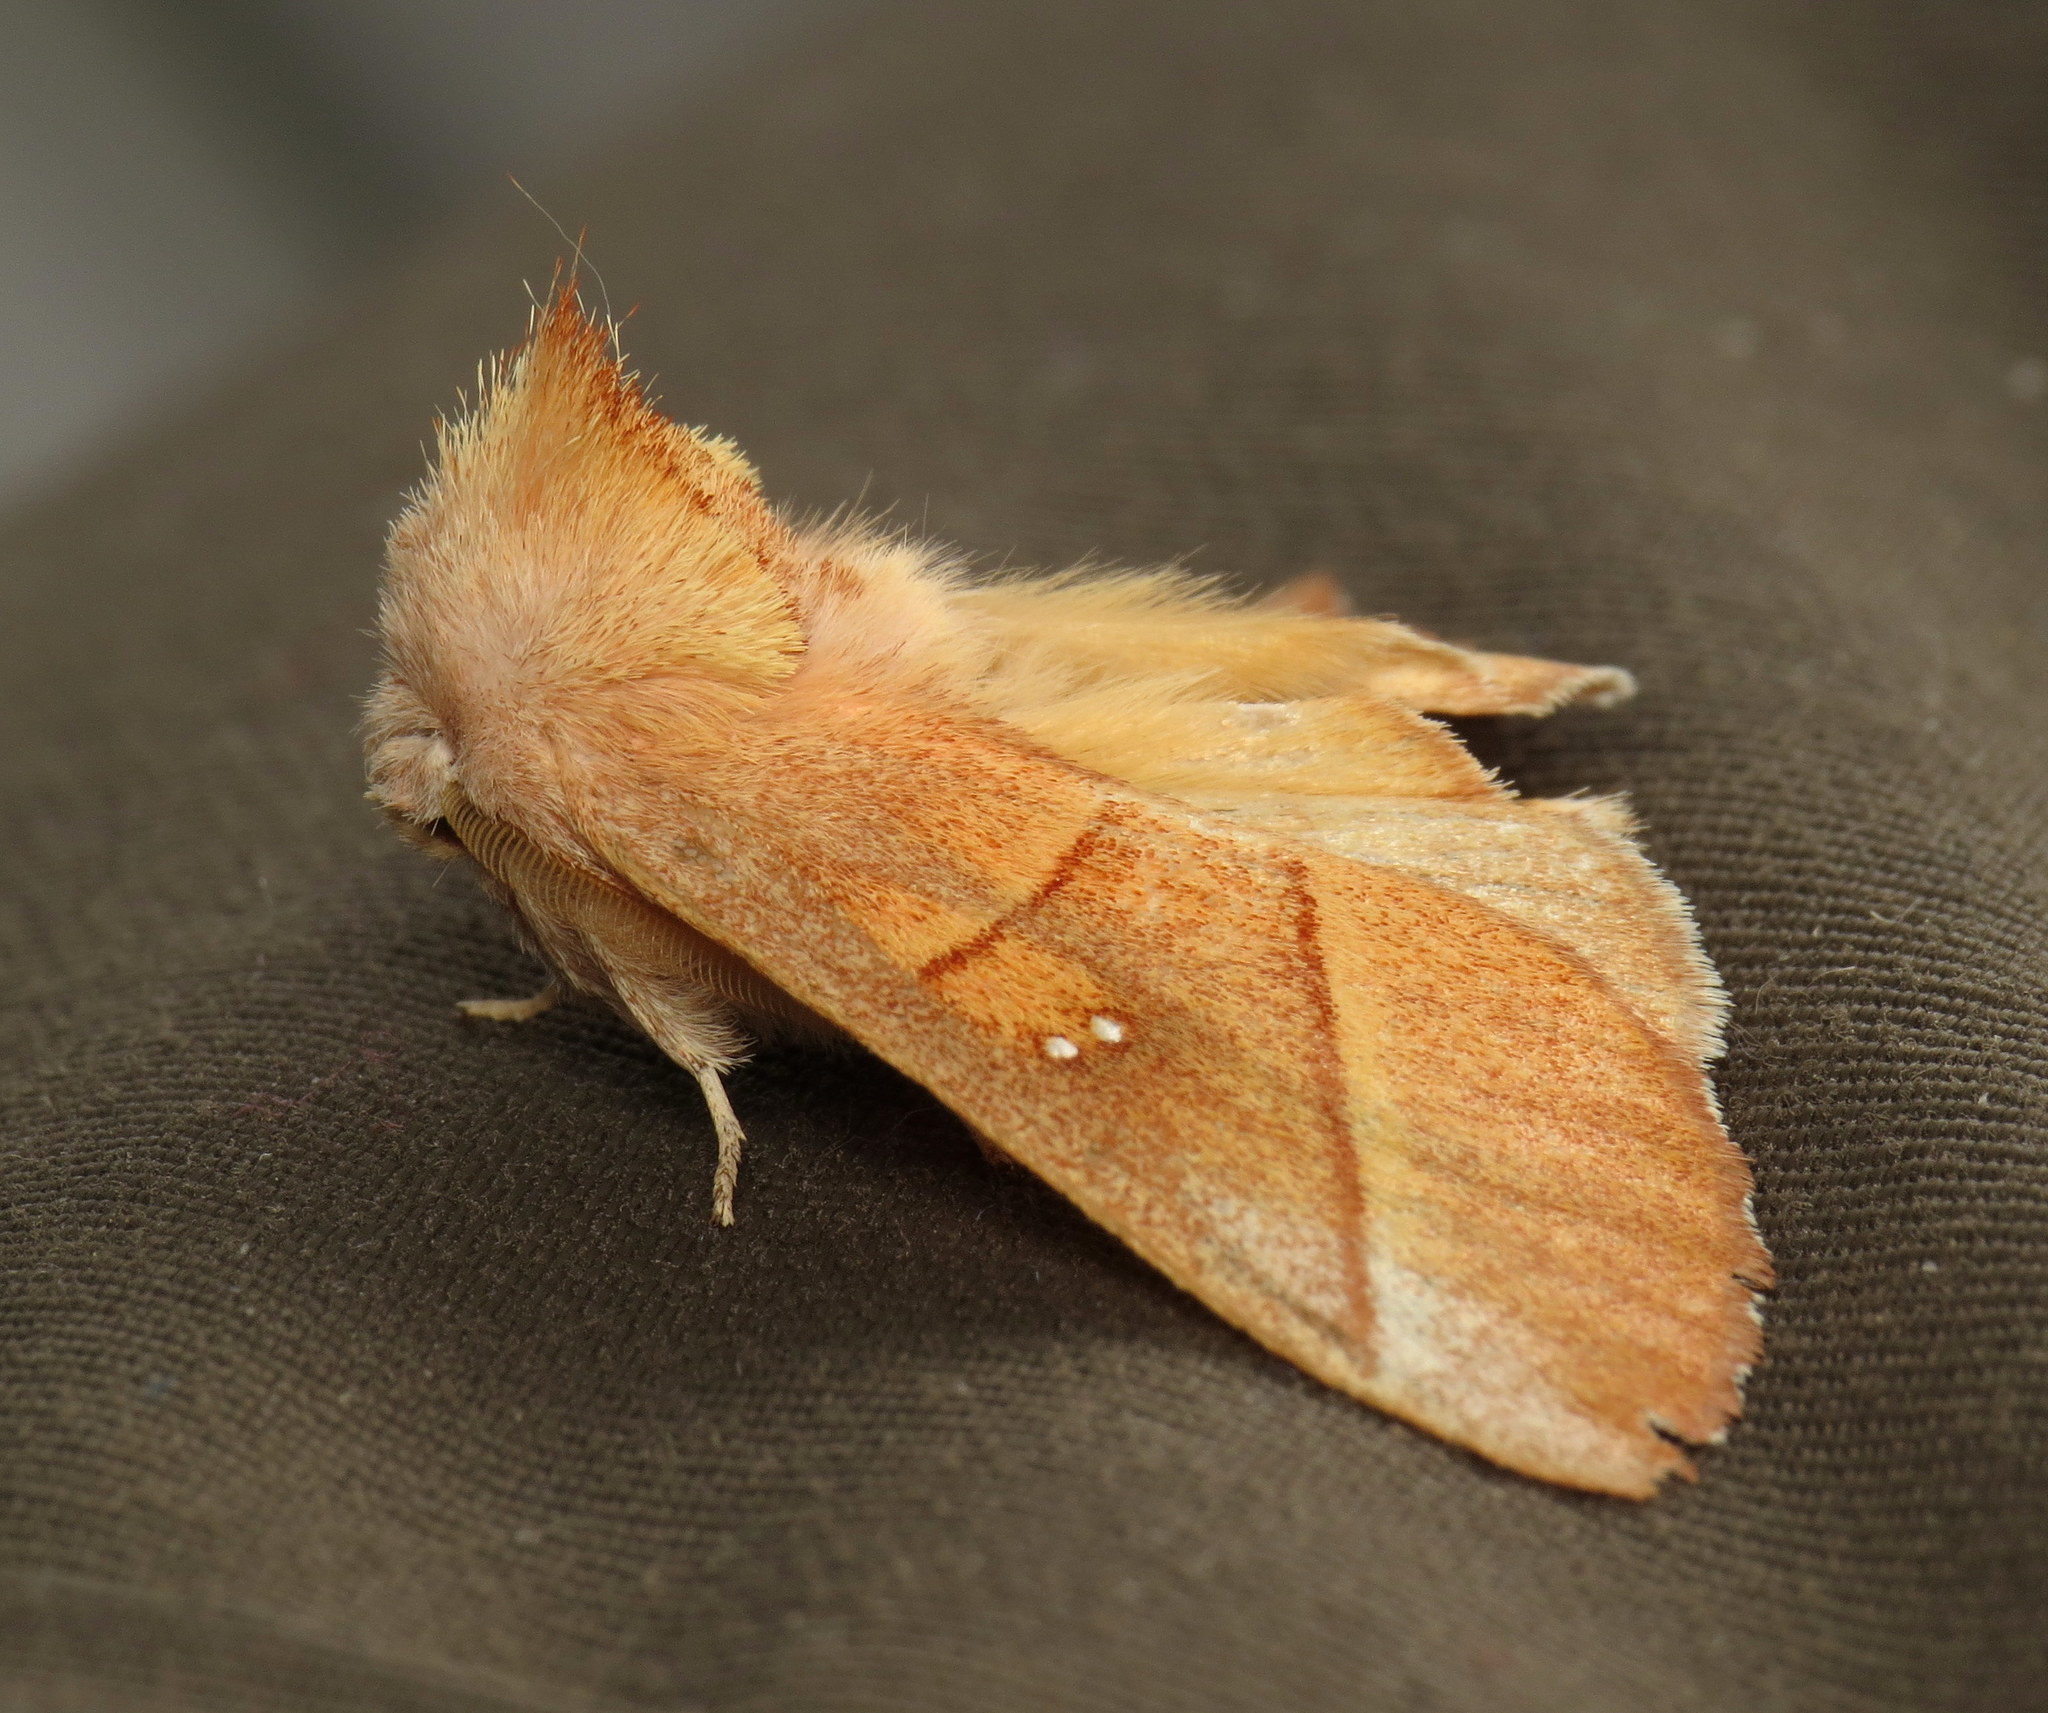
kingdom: Animalia
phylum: Arthropoda
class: Insecta
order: Lepidoptera
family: Notodontidae
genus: Nadata
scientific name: Nadata gibbosa
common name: White-dotted prominent
